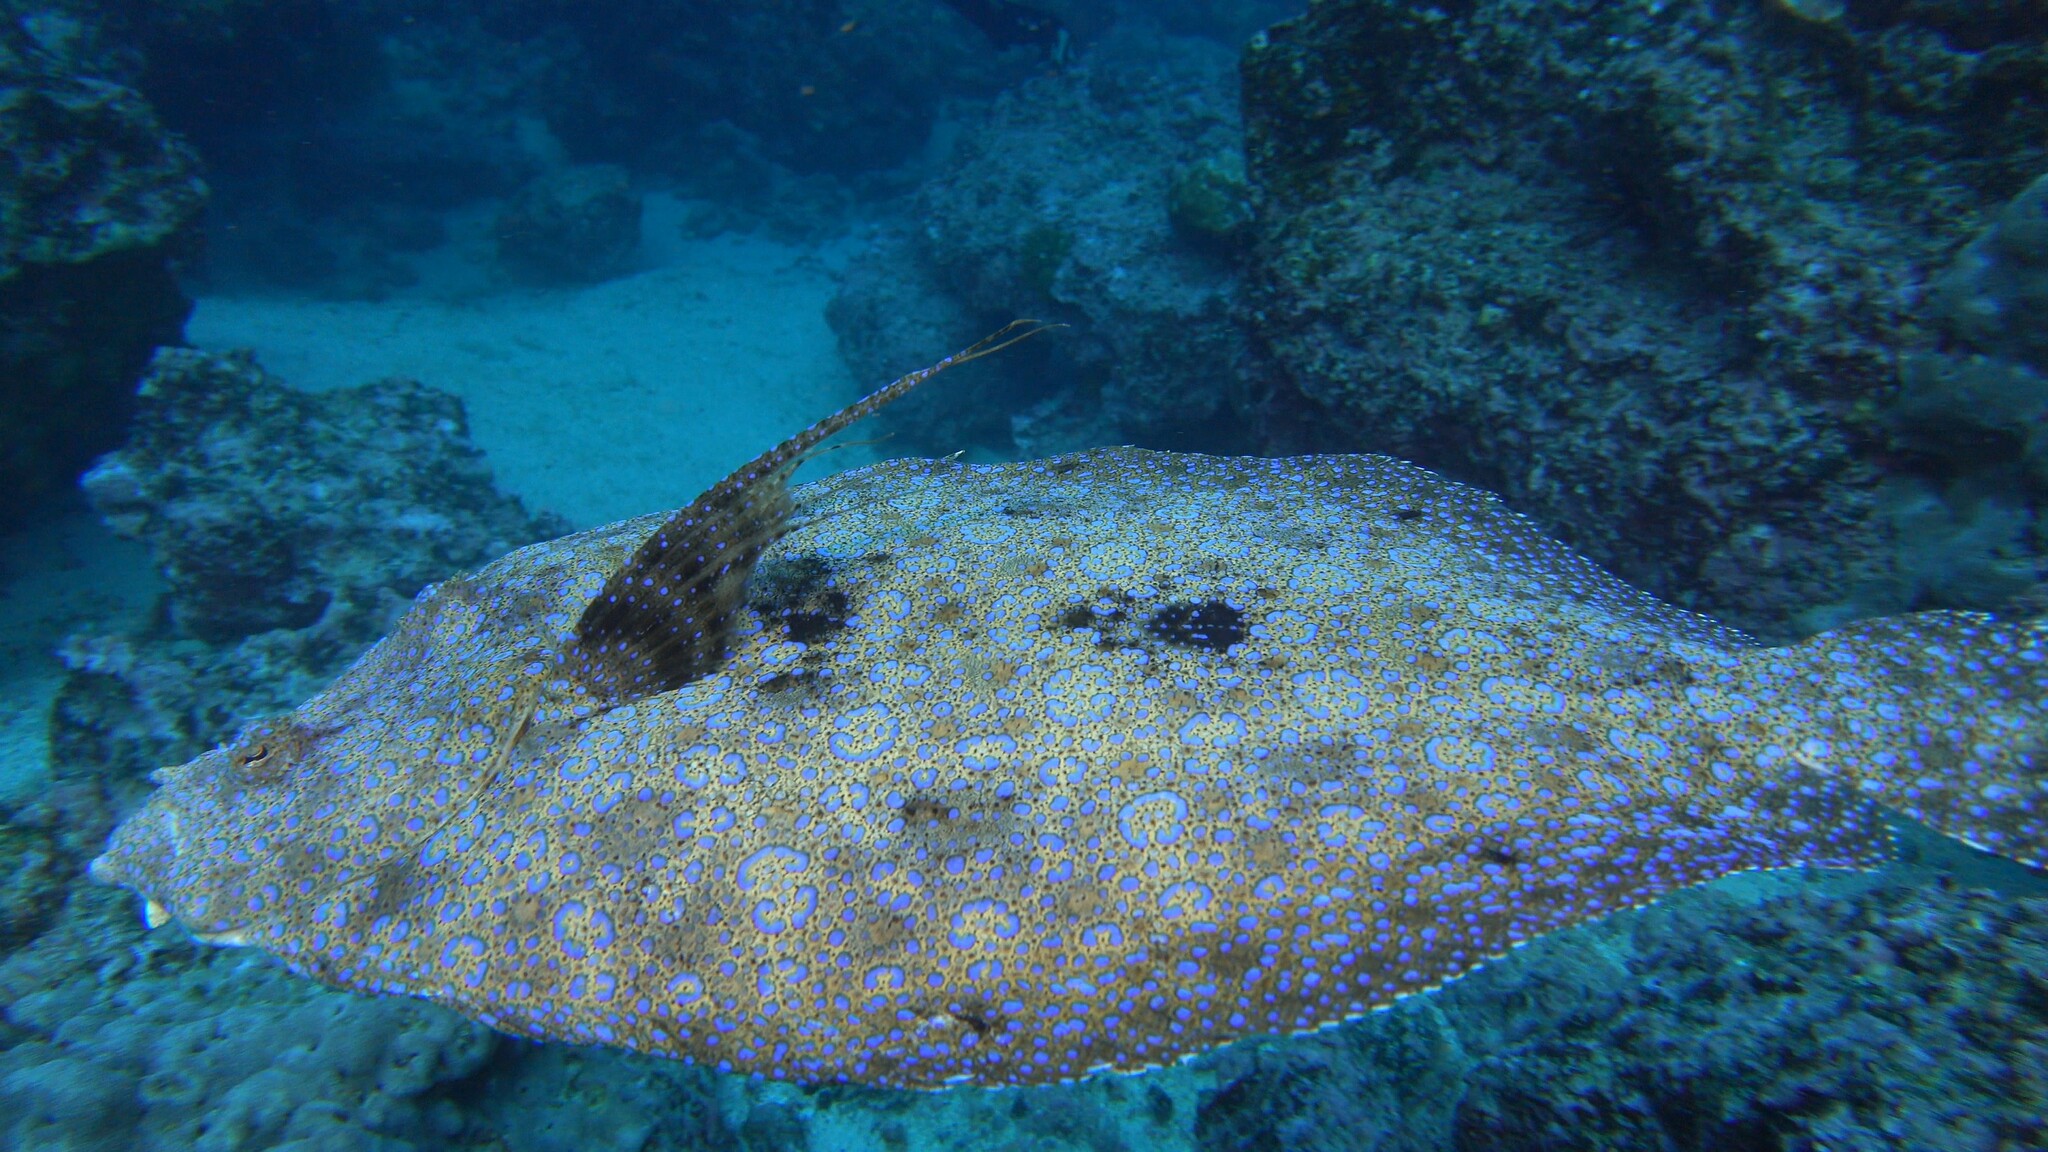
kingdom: Animalia
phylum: Chordata
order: Pleuronectiformes
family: Bothidae
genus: Bothus
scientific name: Bothus mancus
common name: Flowery flounder
